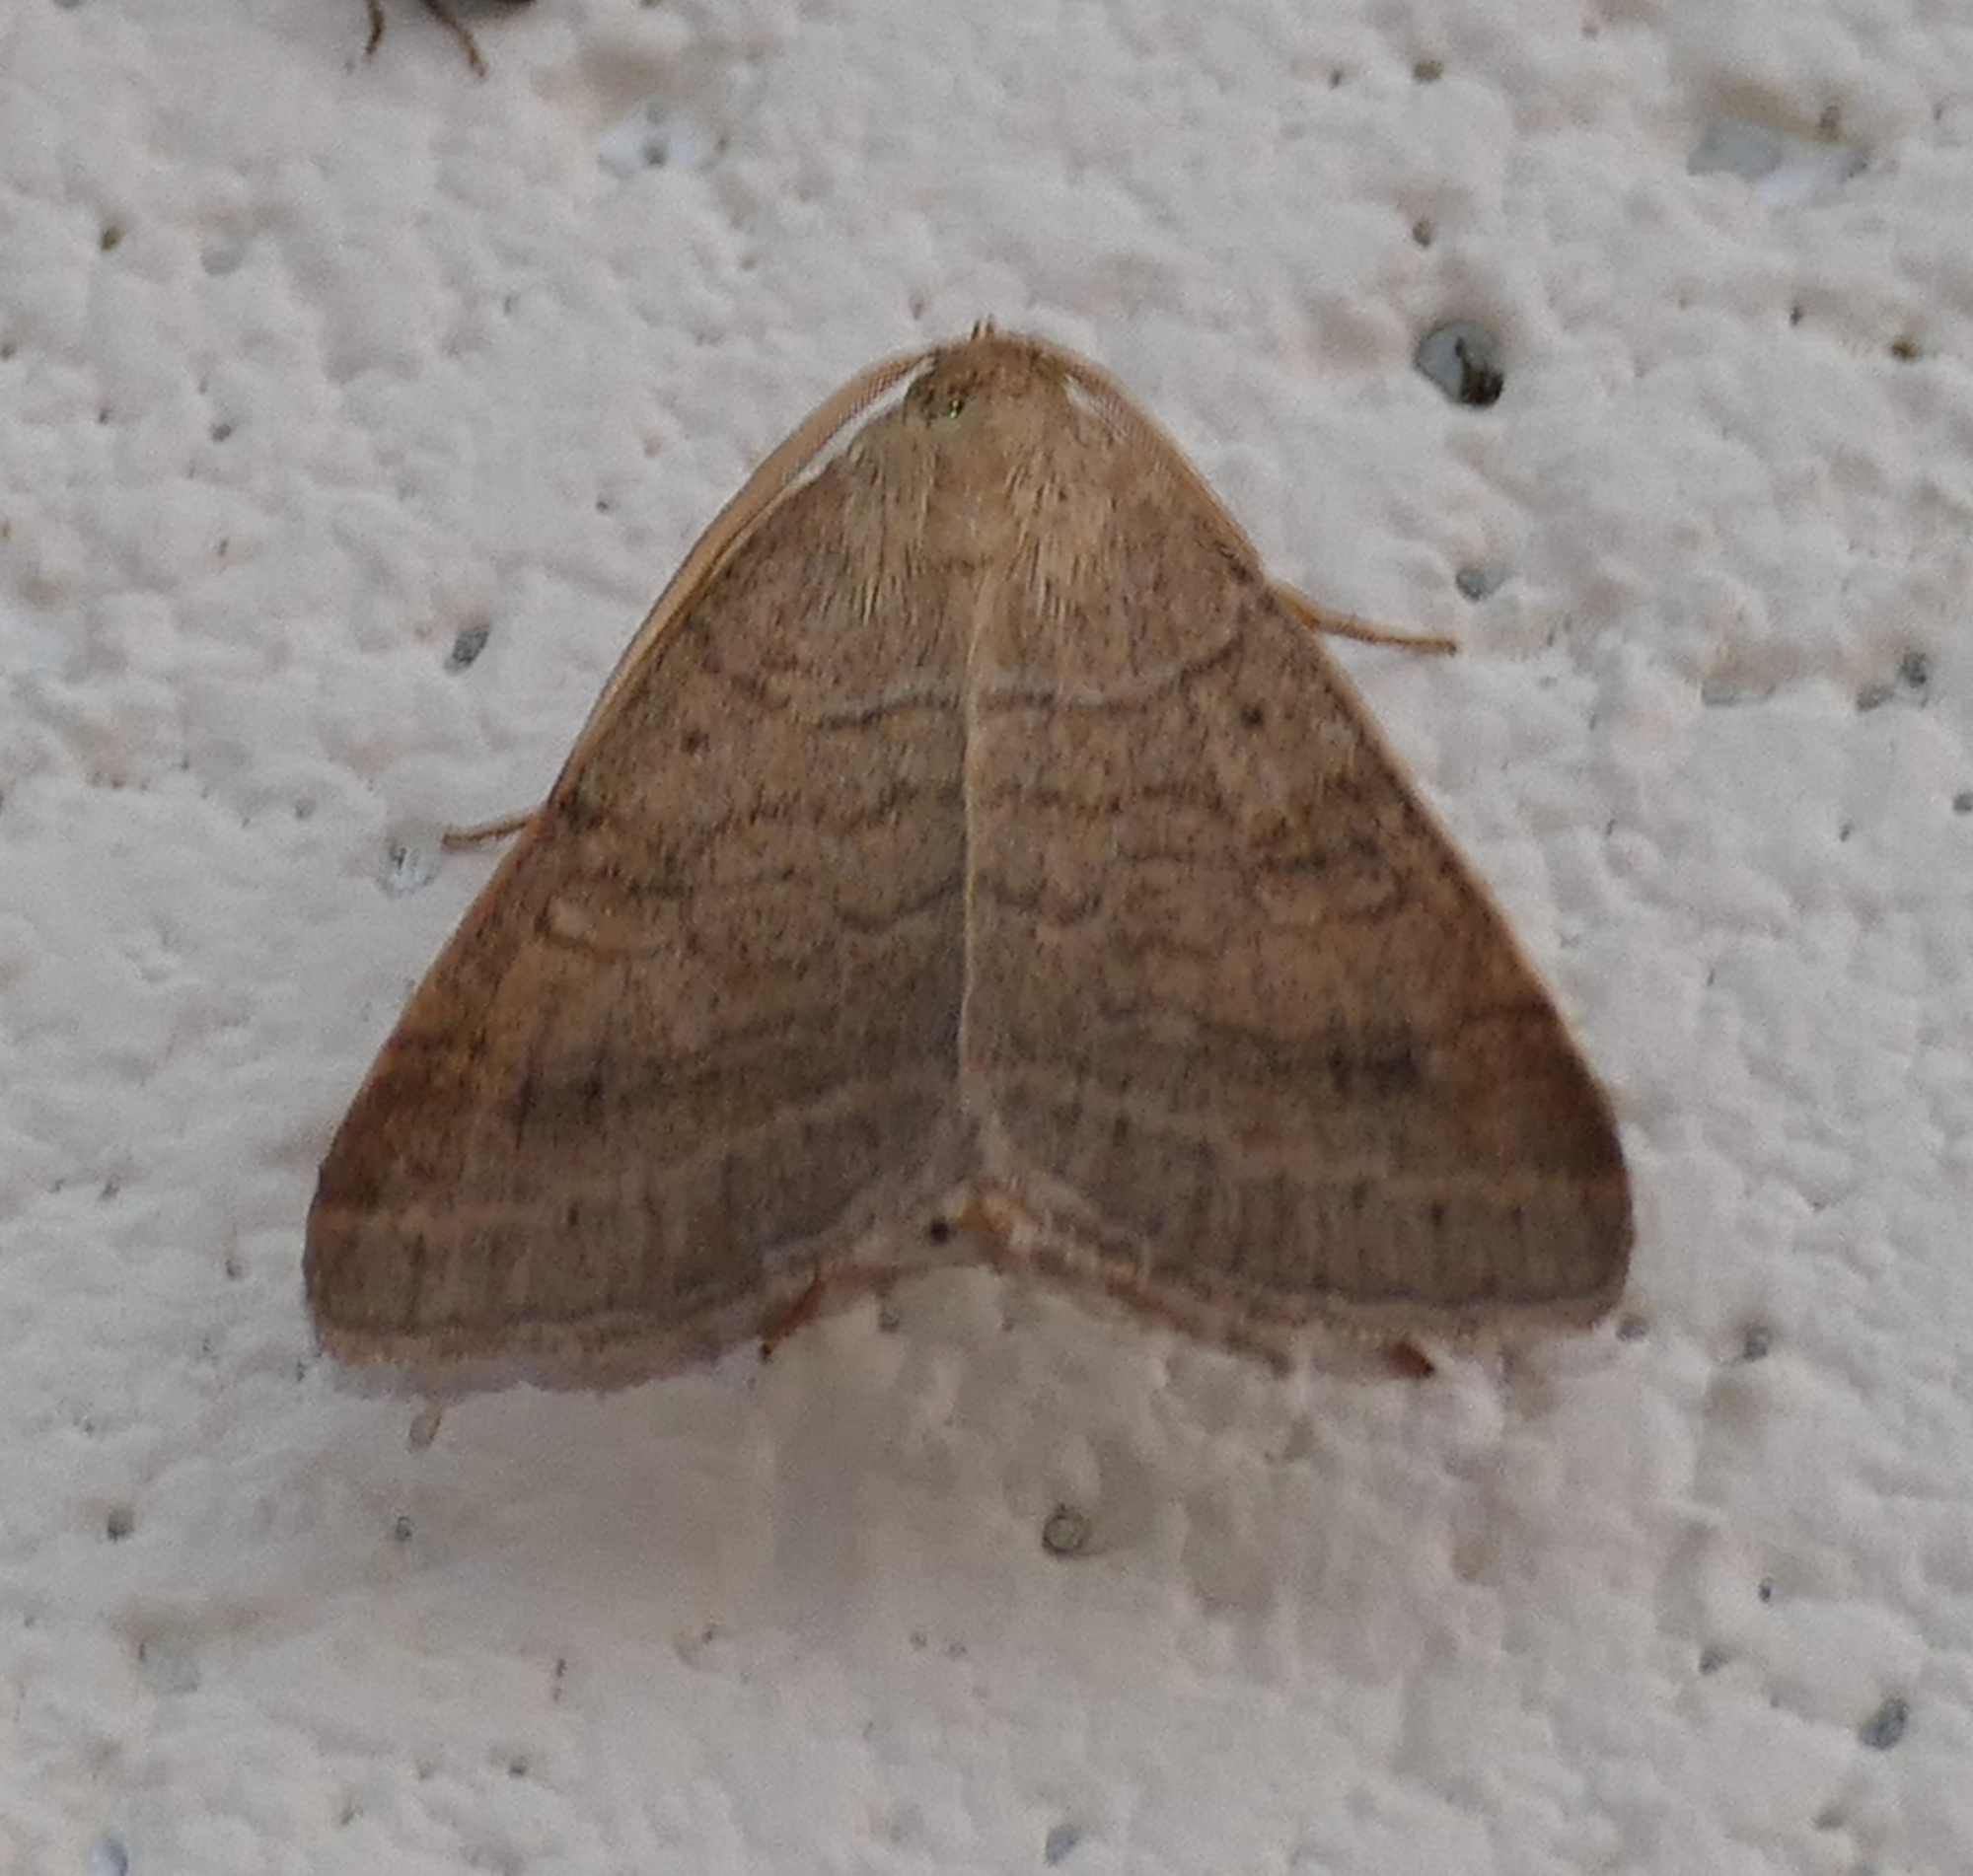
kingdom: Animalia
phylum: Arthropoda
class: Insecta
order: Lepidoptera
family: Erebidae
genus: Caenurgia
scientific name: Caenurgia chloropha
